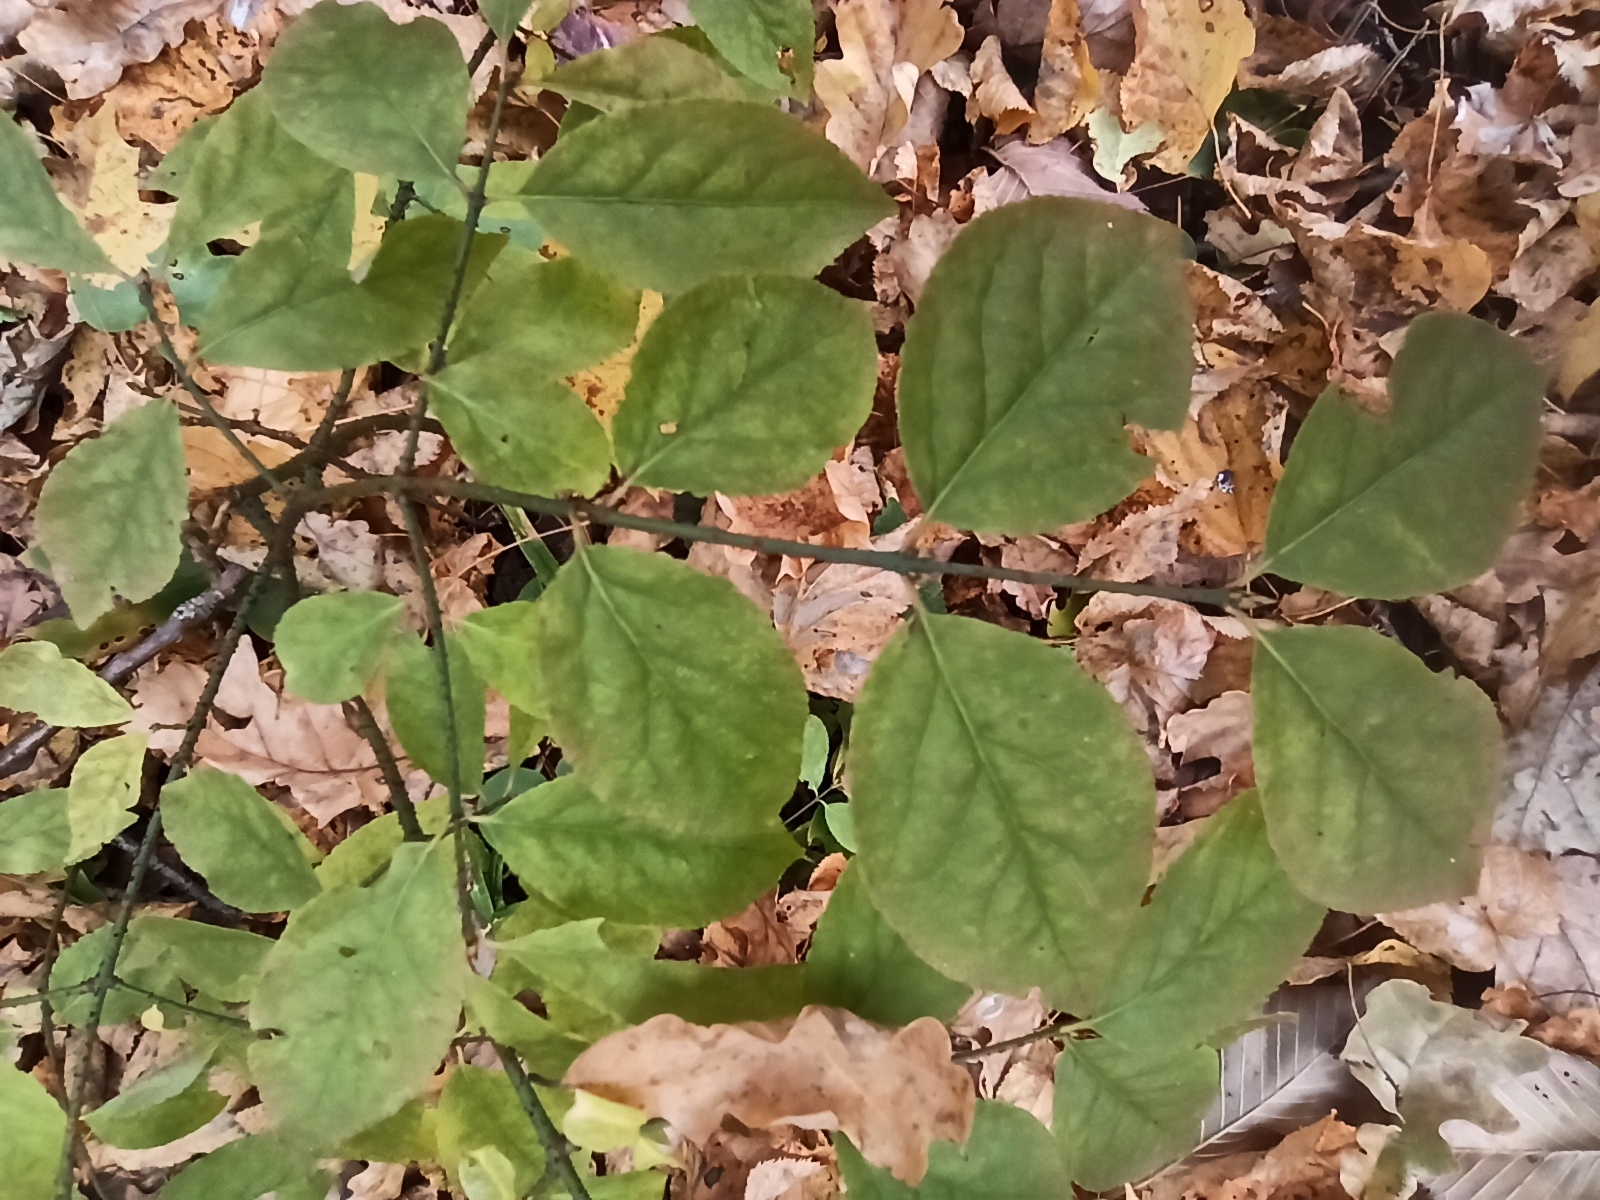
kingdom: Plantae
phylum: Tracheophyta
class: Magnoliopsida
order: Celastrales
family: Celastraceae
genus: Euonymus
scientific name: Euonymus verrucosus
